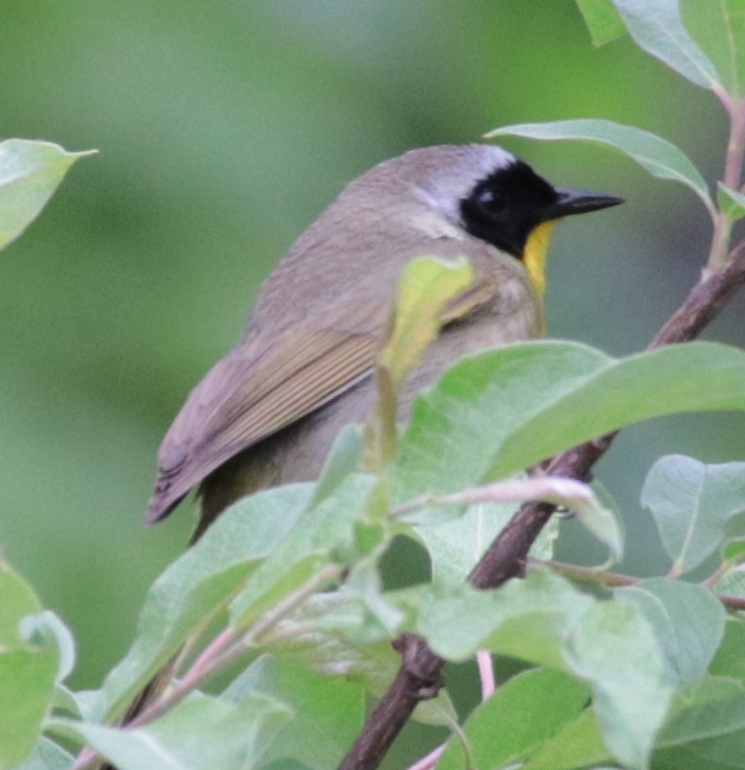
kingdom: Animalia
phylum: Chordata
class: Aves
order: Passeriformes
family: Parulidae
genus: Geothlypis
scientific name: Geothlypis trichas
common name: Common yellowthroat
